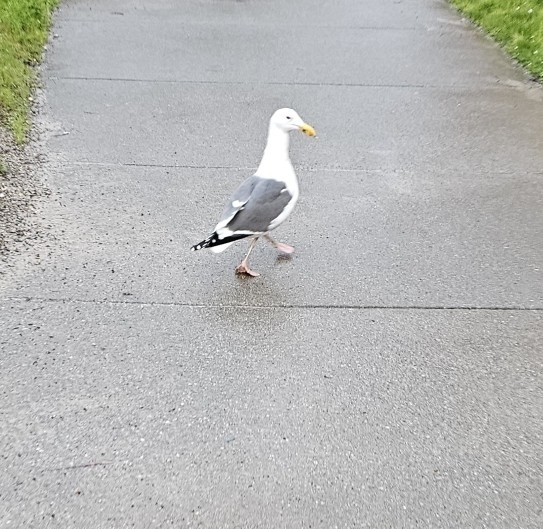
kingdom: Animalia
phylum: Chordata
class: Aves
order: Charadriiformes
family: Laridae
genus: Larus
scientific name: Larus occidentalis
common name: Western gull
